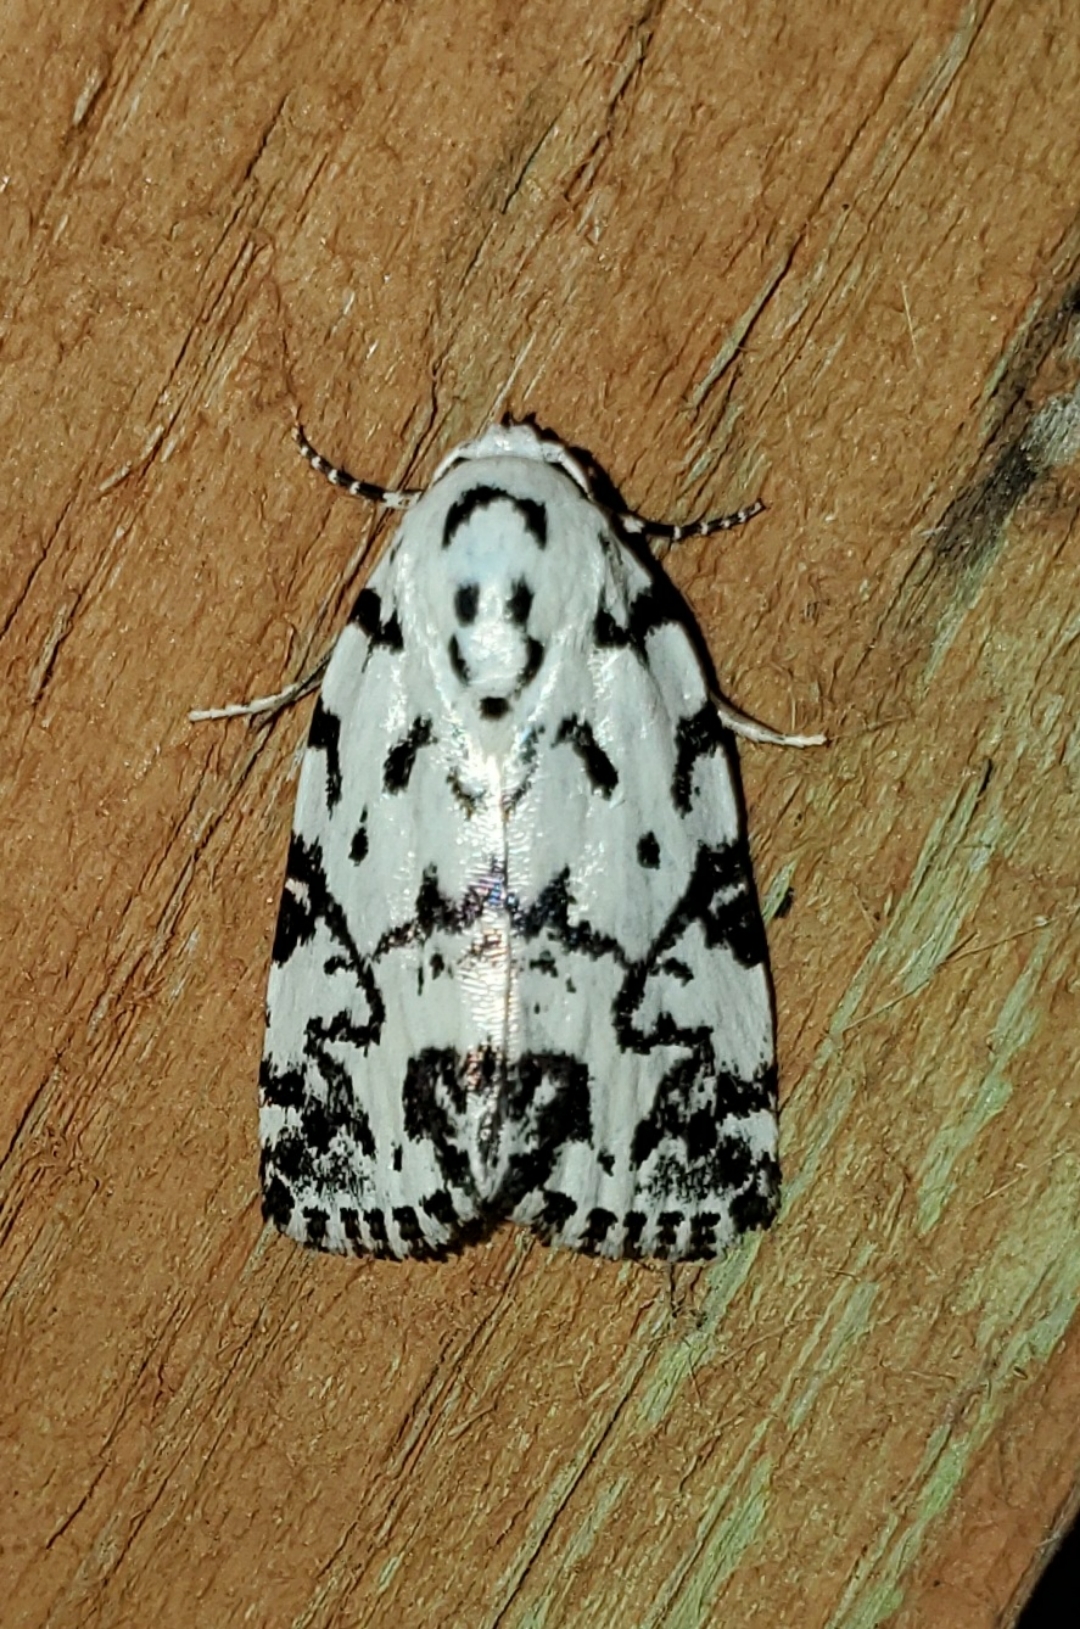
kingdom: Animalia
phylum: Arthropoda
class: Insecta
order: Lepidoptera
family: Noctuidae
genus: Polygrammate
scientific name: Polygrammate hebraeicum
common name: Hebrew moth
